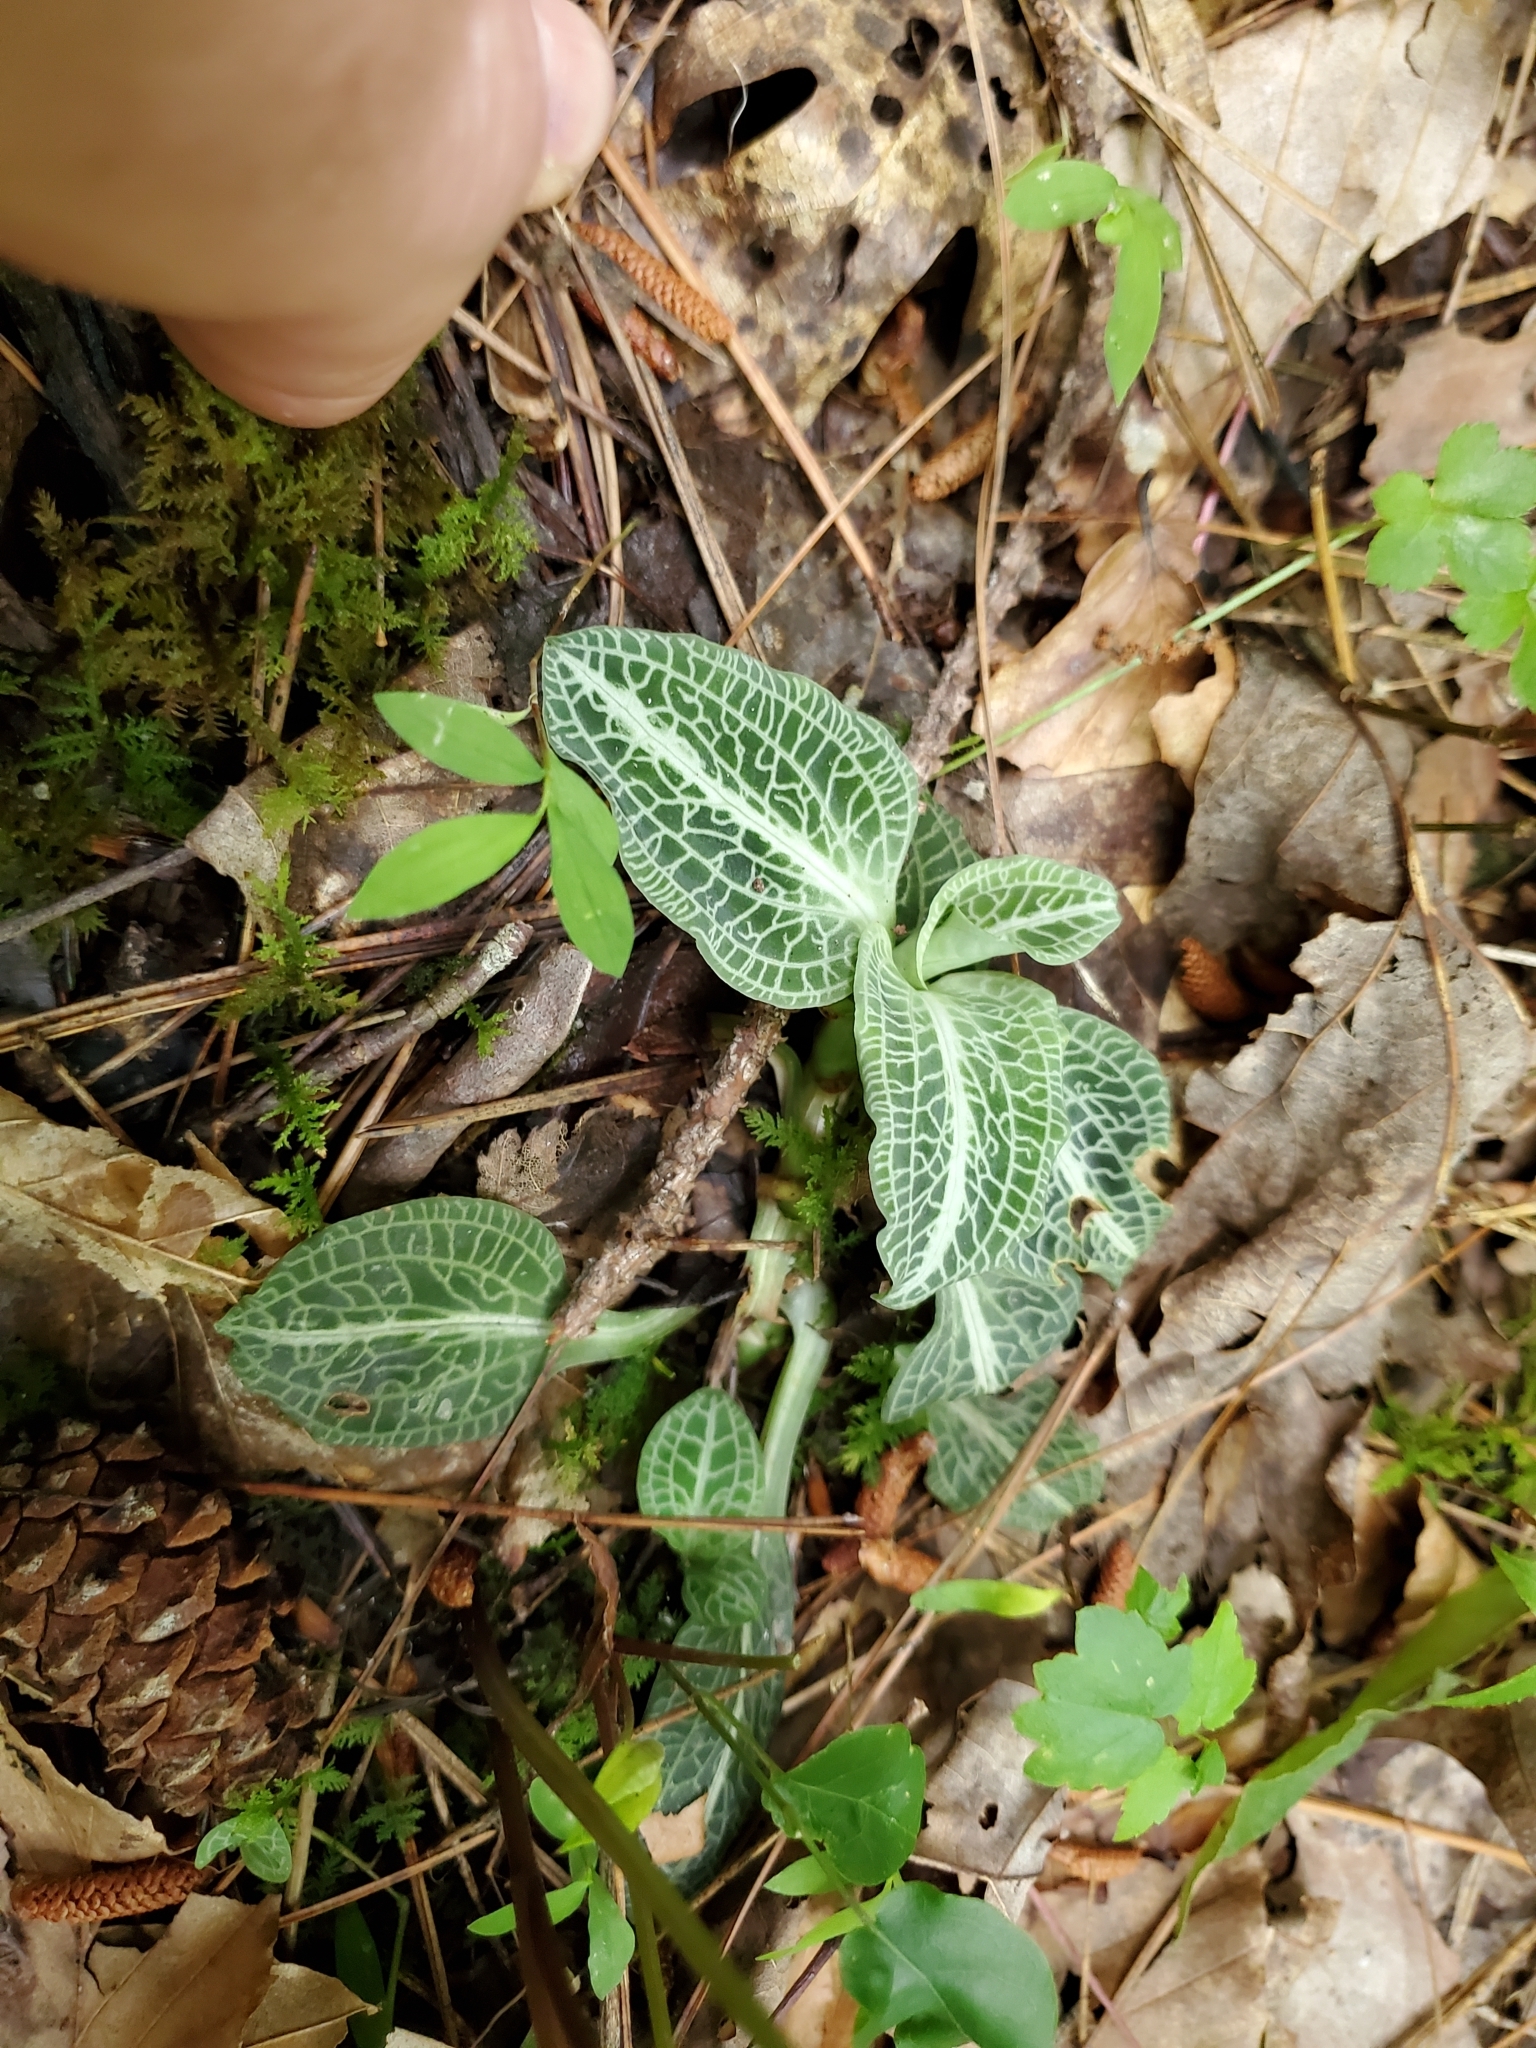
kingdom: Plantae
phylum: Tracheophyta
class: Liliopsida
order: Asparagales
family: Orchidaceae
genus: Goodyera
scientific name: Goodyera pubescens
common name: Downy rattlesnake-plantain
